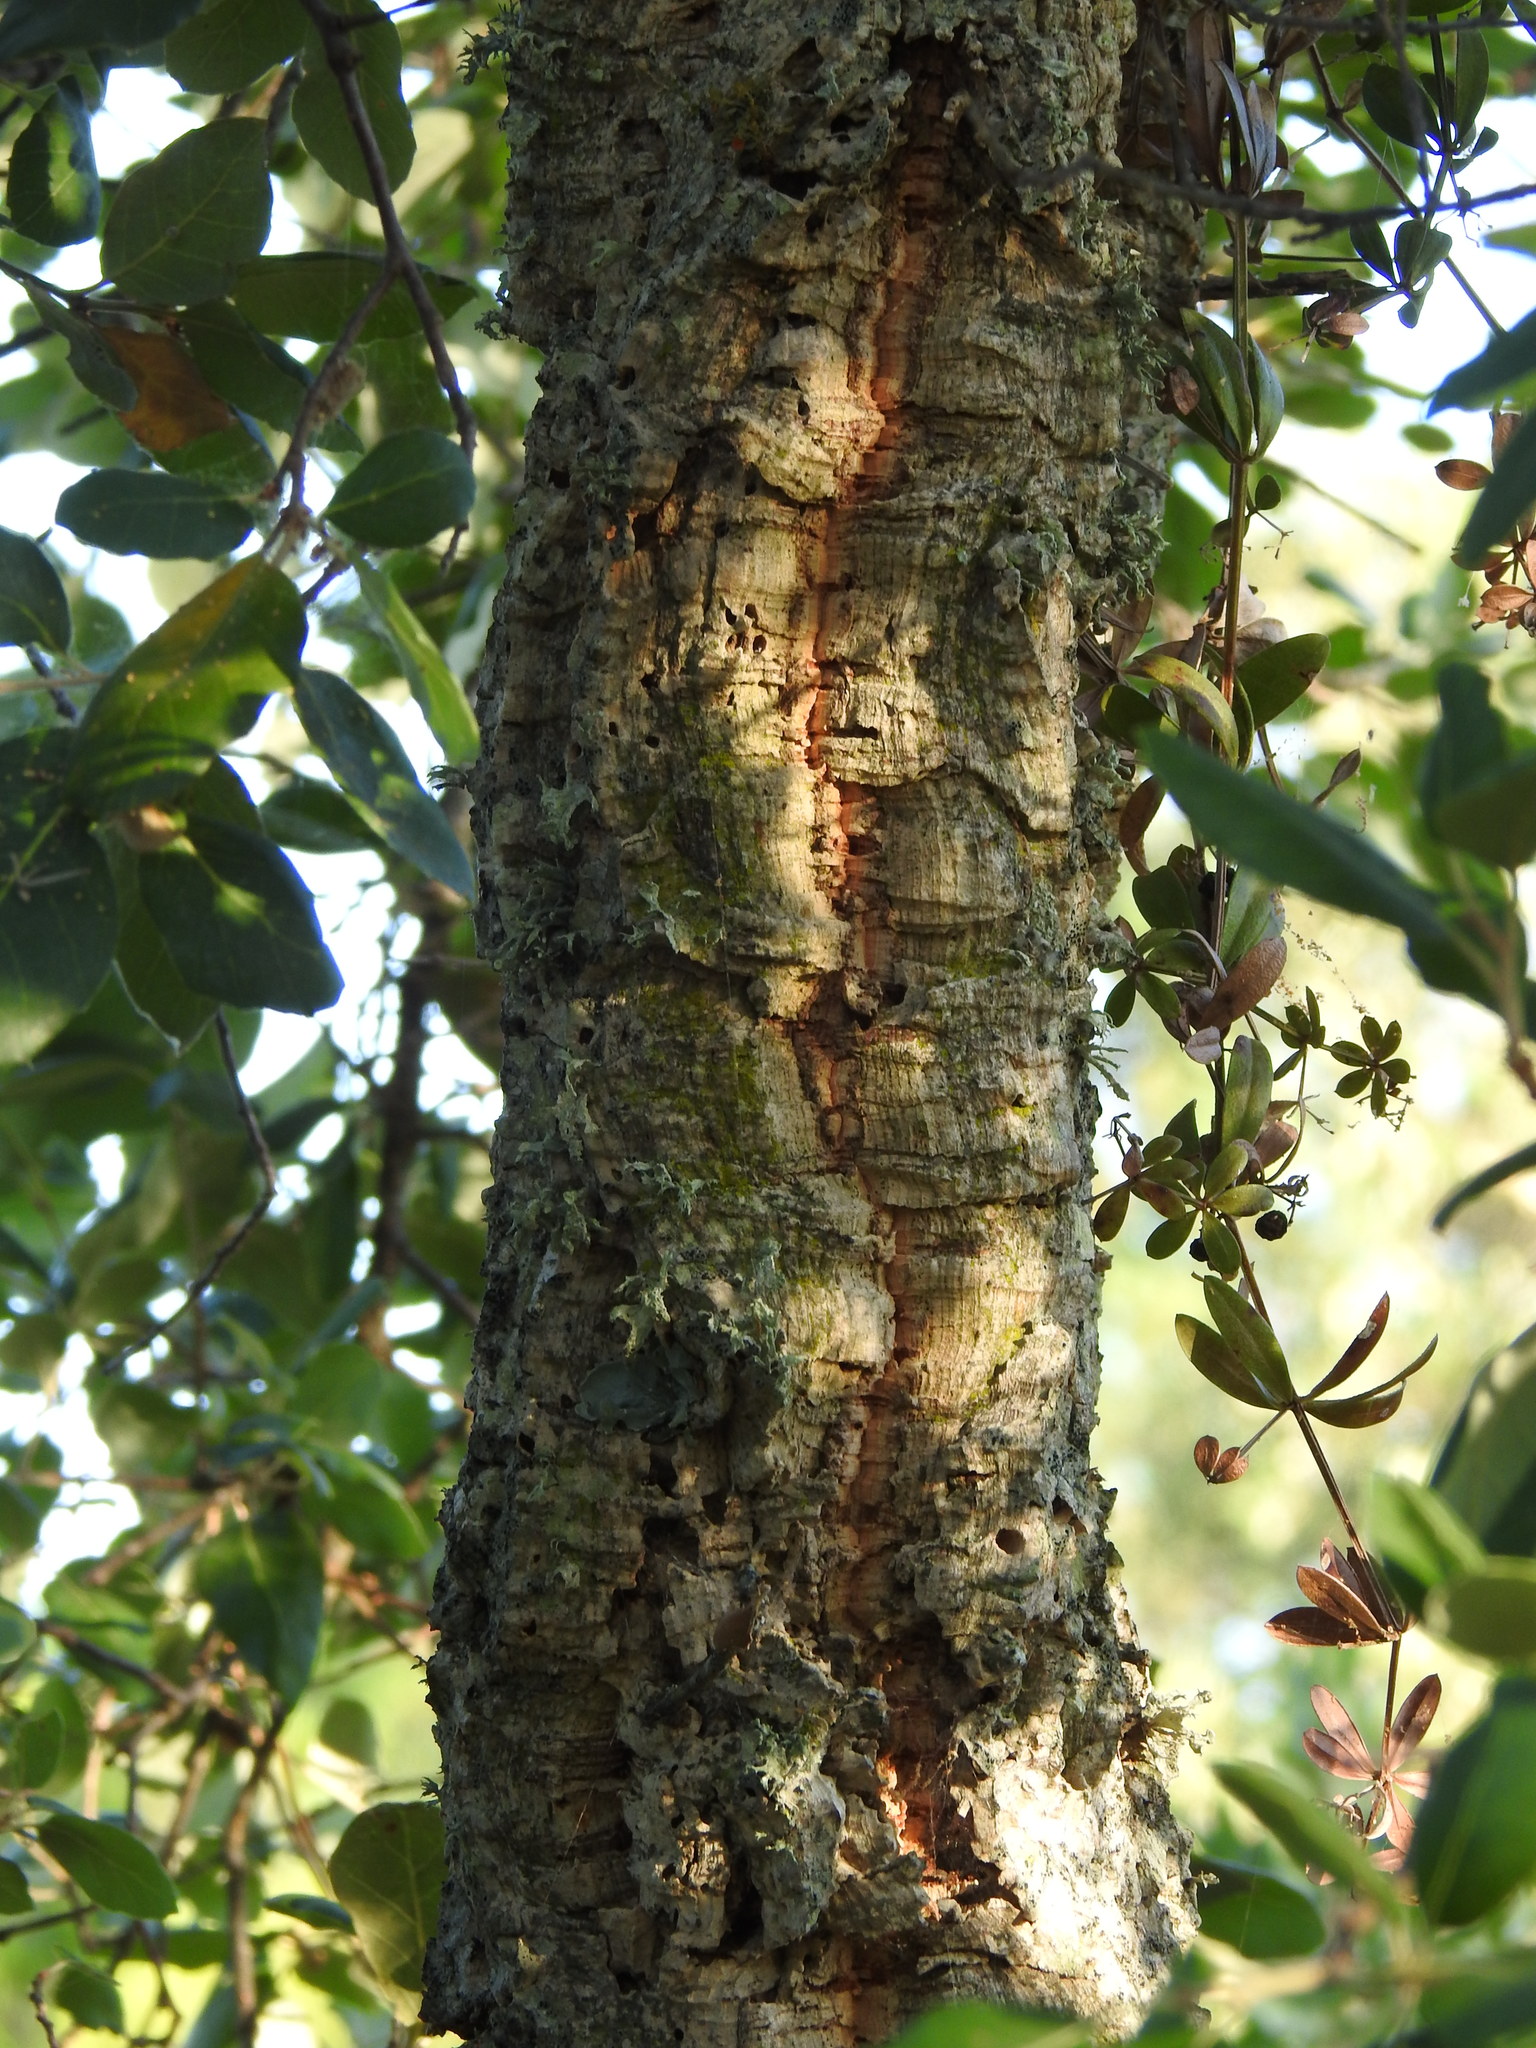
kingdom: Plantae
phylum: Tracheophyta
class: Magnoliopsida
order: Fagales
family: Fagaceae
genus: Quercus
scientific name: Quercus suber
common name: Cork oak
